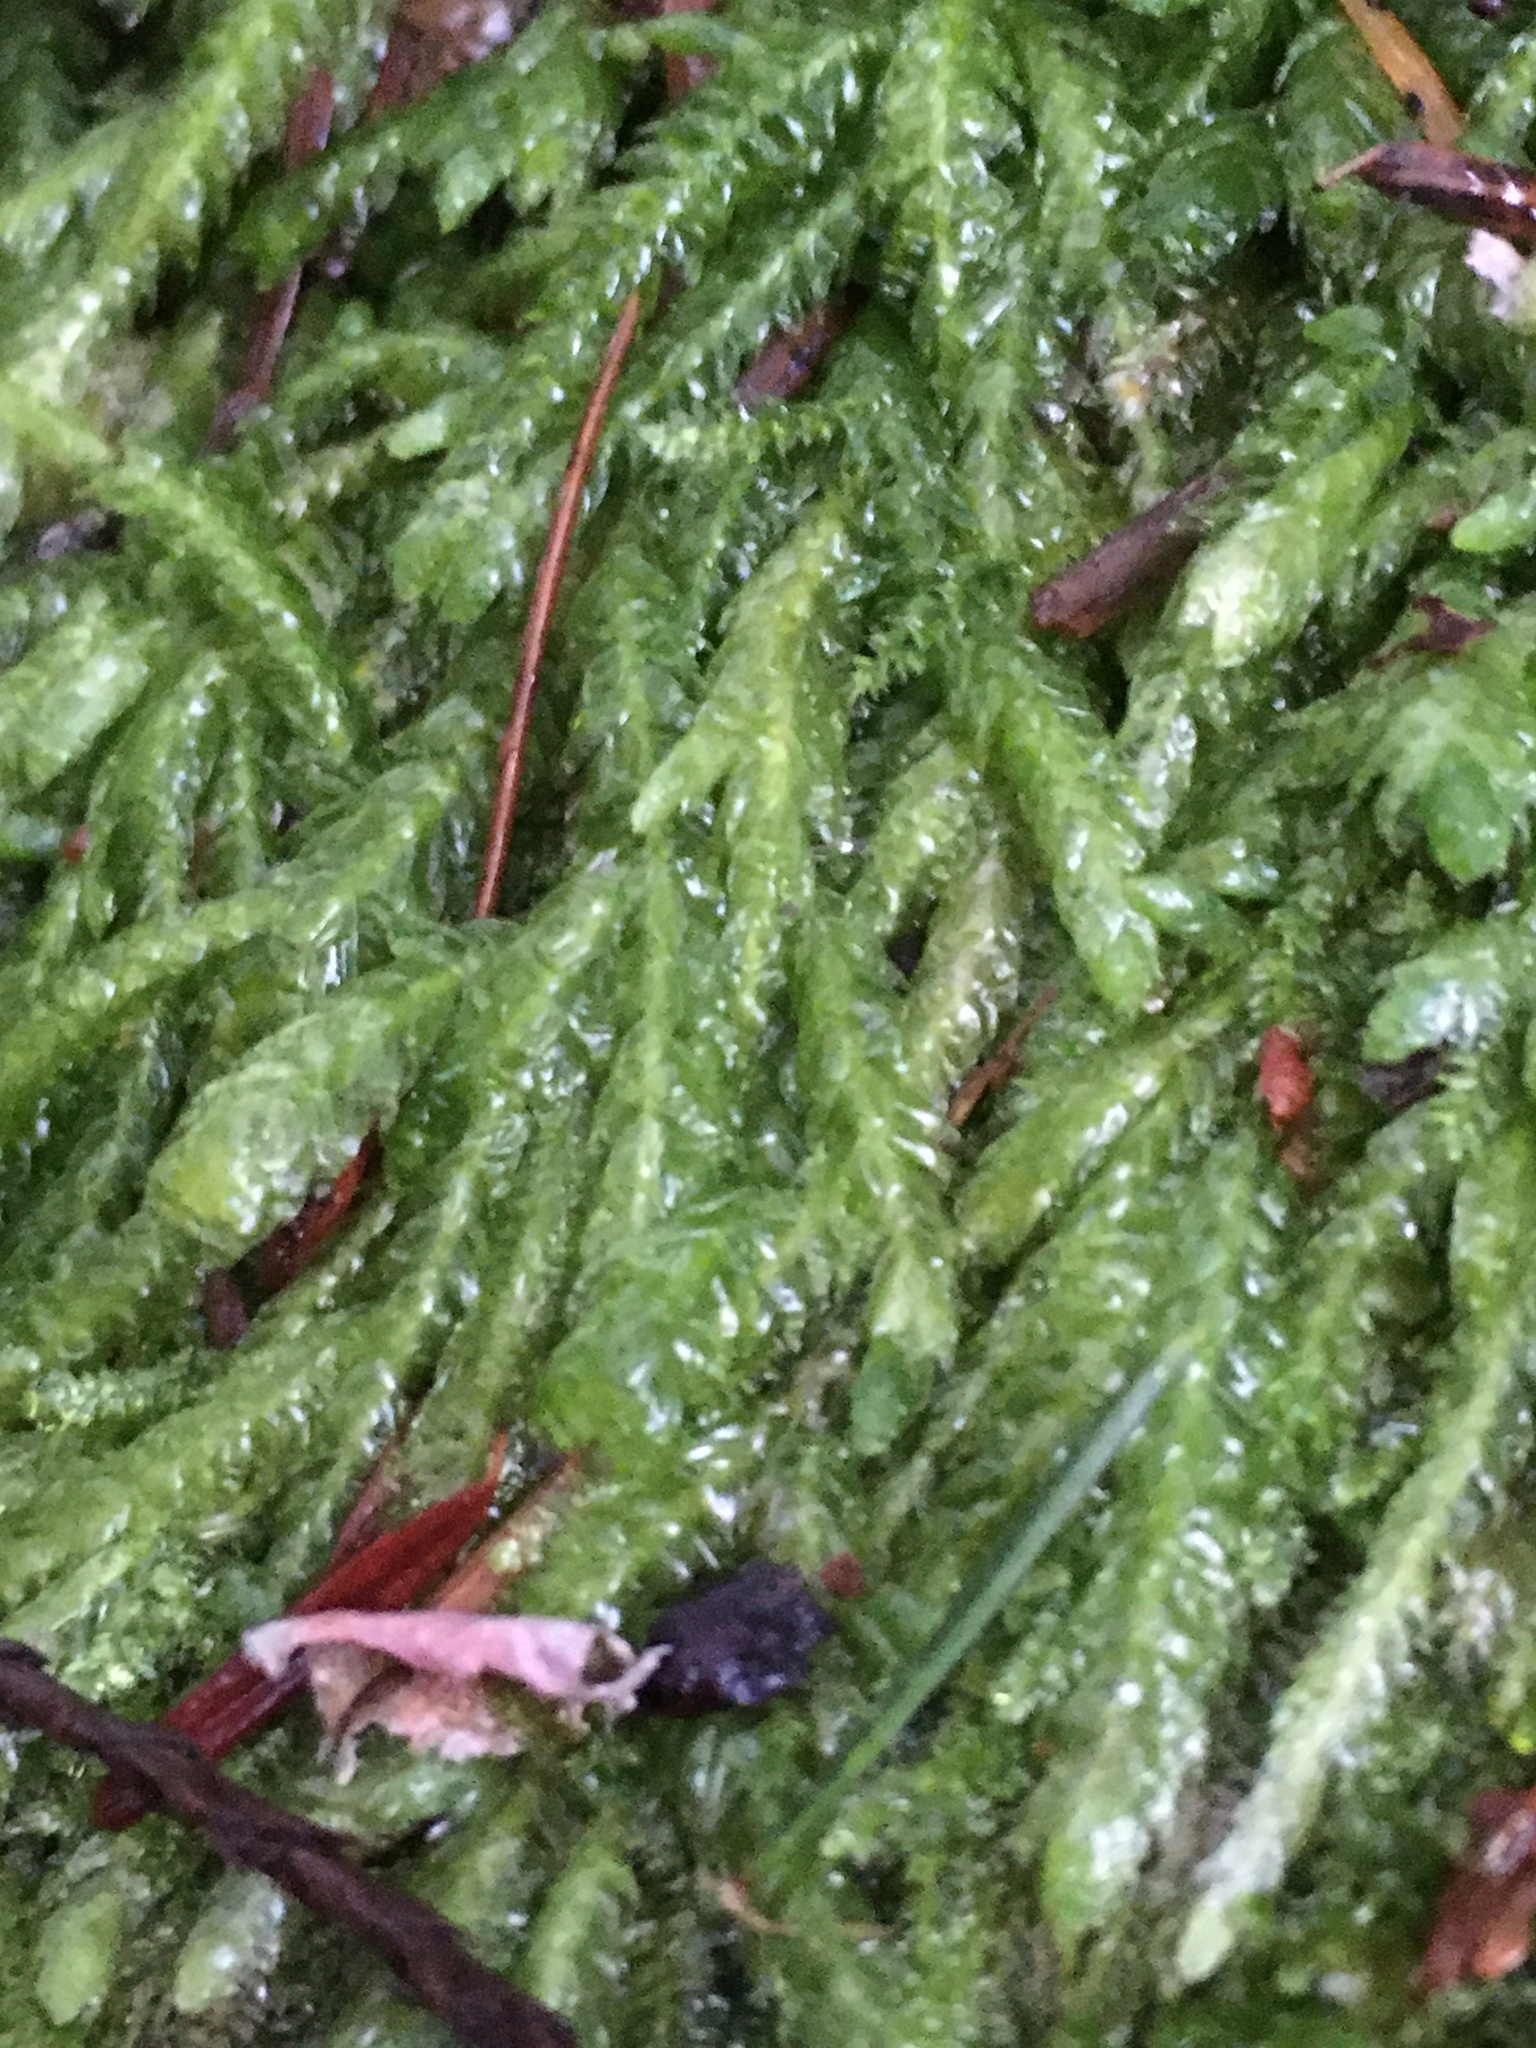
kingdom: Plantae
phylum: Bryophyta
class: Bryopsida
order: Hypnales
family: Plagiotheciaceae
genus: Plagiothecium
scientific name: Plagiothecium undulatum
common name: Waved silk-moss
